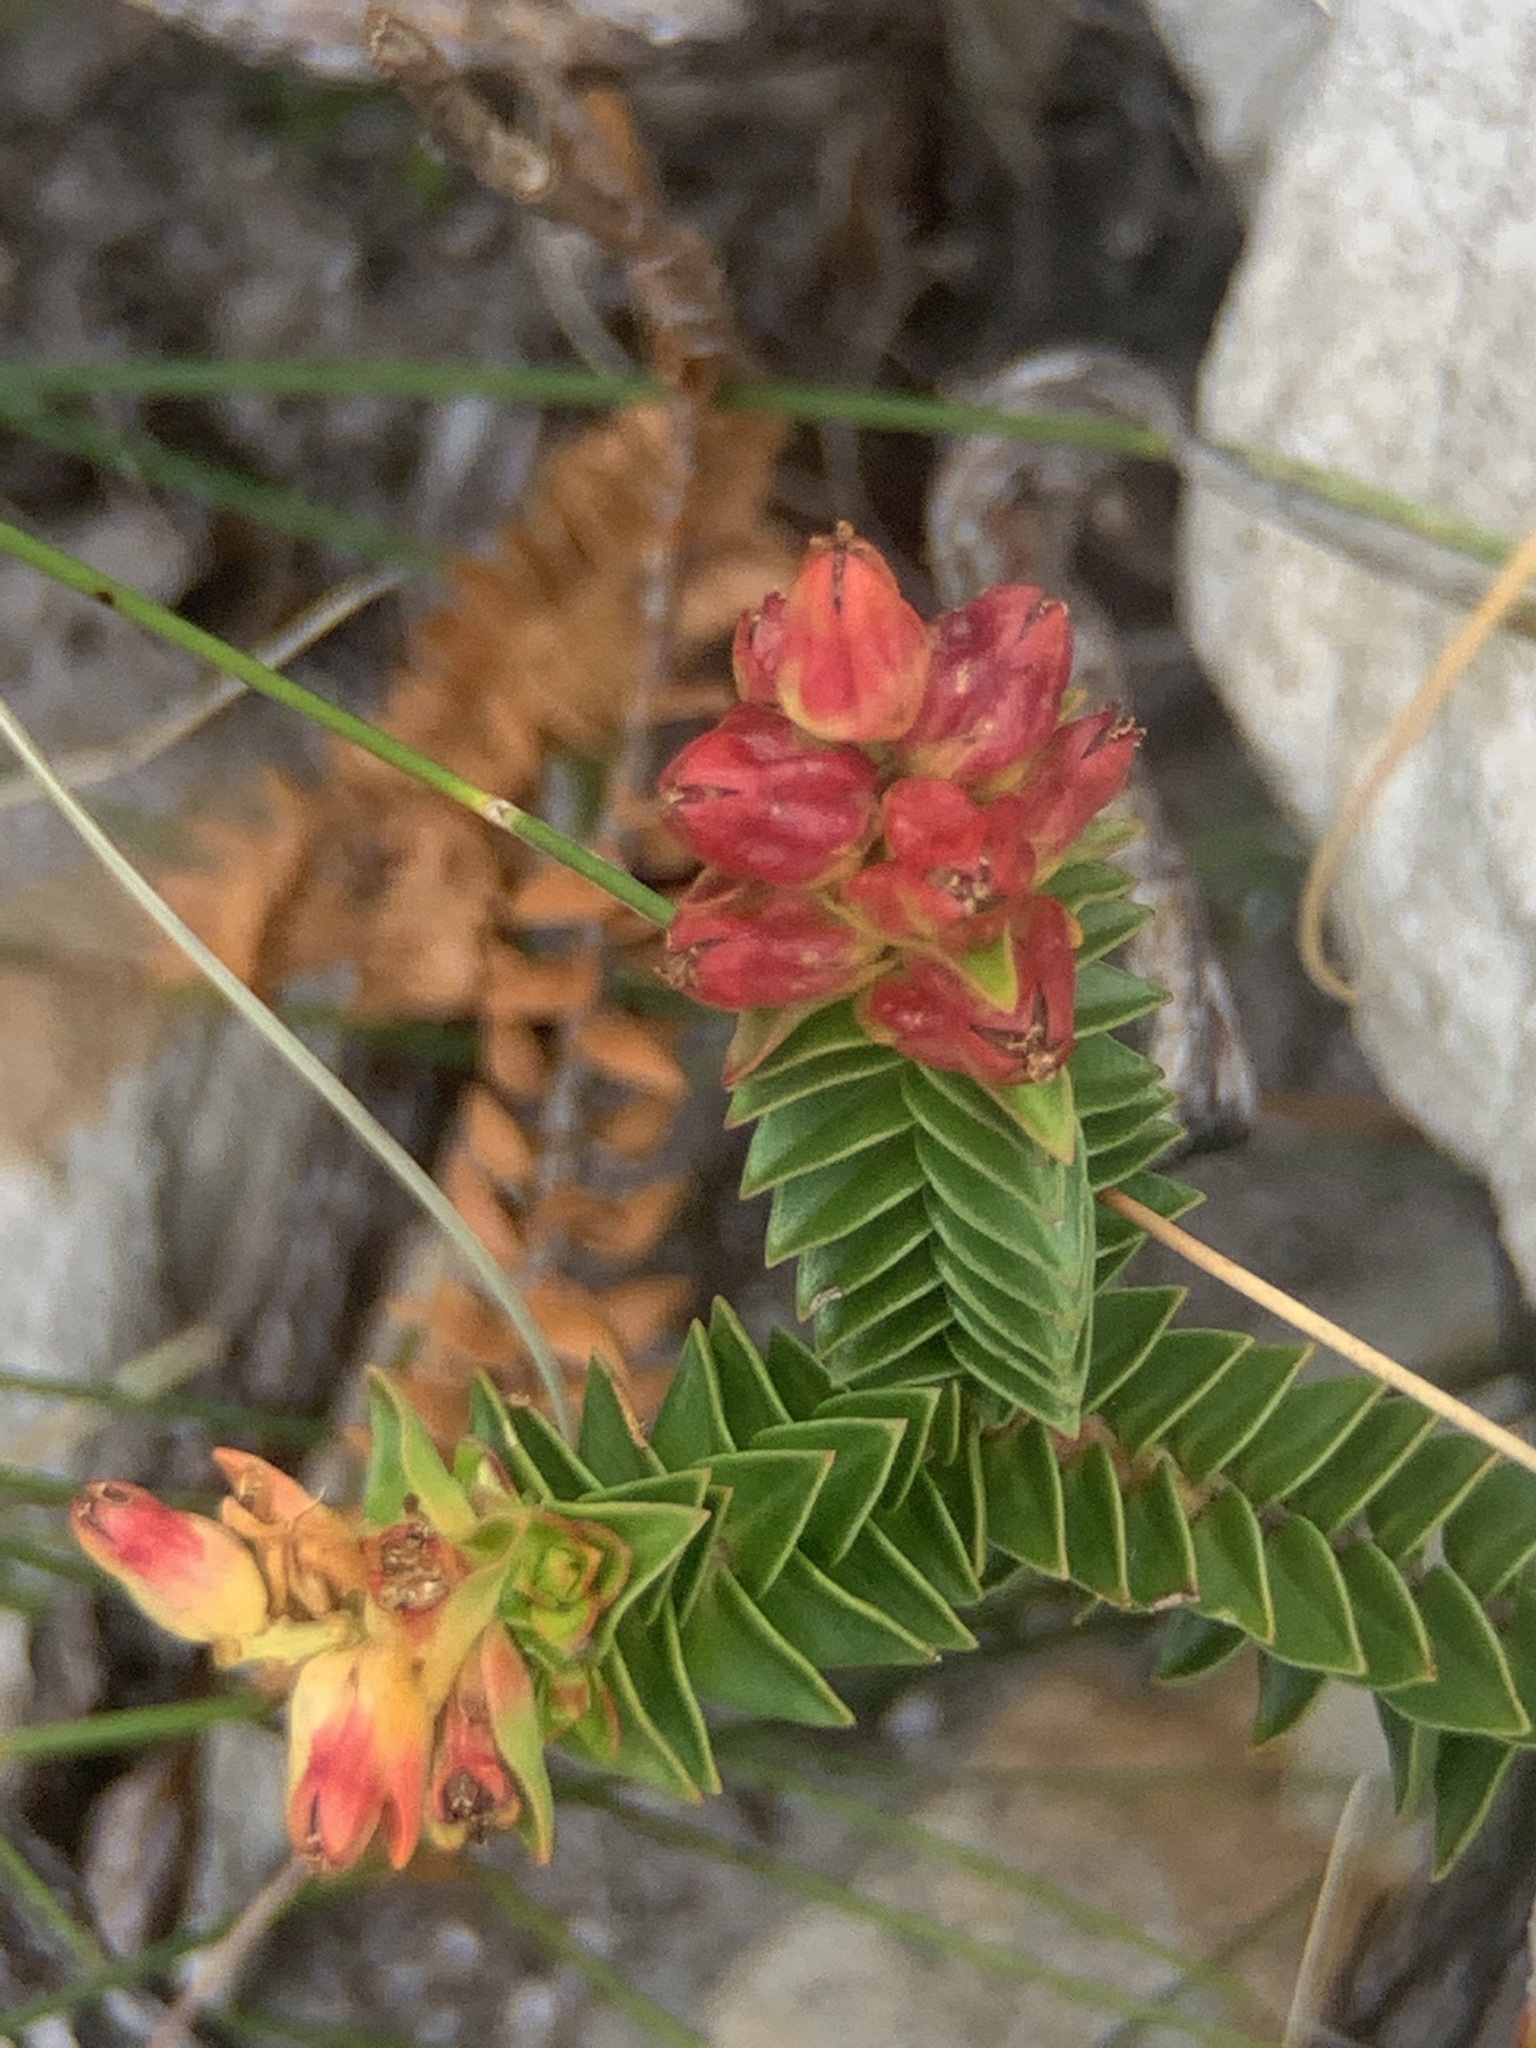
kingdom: Plantae
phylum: Tracheophyta
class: Magnoliopsida
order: Myrtales
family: Penaeaceae
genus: Penaea
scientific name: Penaea mucronata
